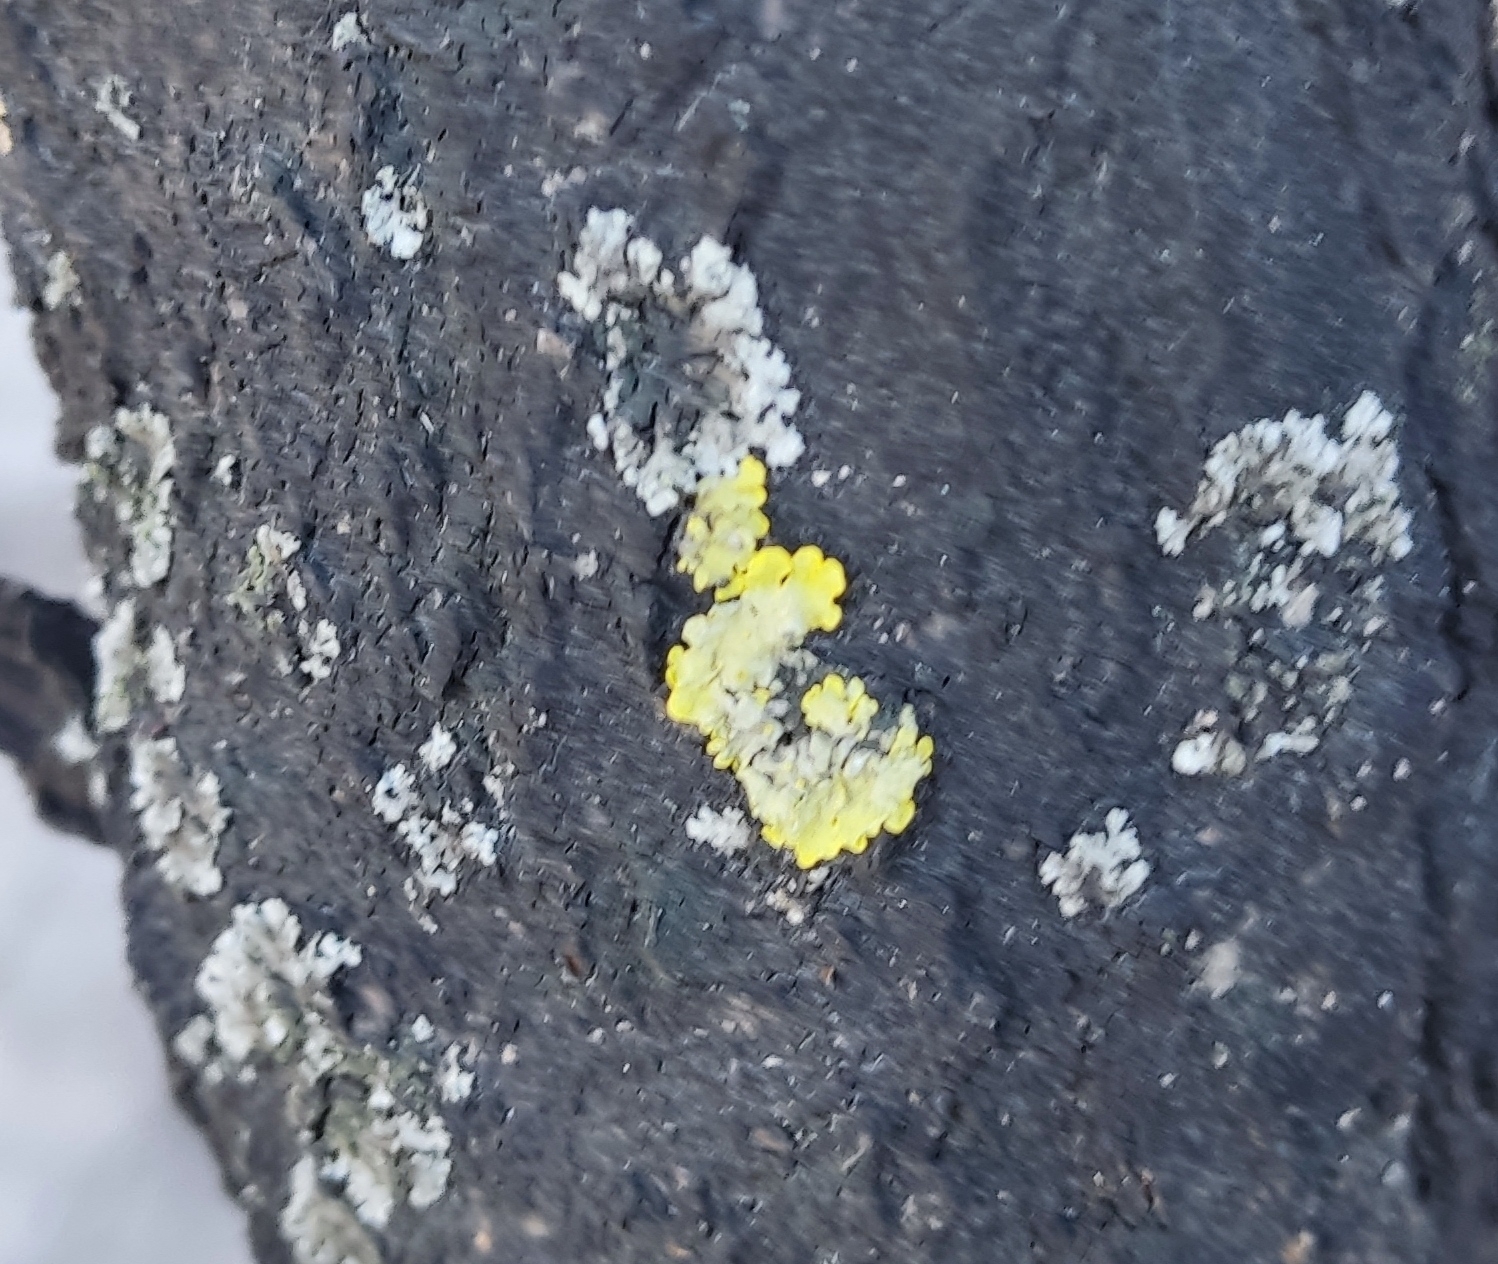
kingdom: Fungi
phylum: Ascomycota
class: Lecanoromycetes
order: Teloschistales
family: Teloschistaceae
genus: Xanthoria
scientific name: Xanthoria parietina
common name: Common orange lichen
